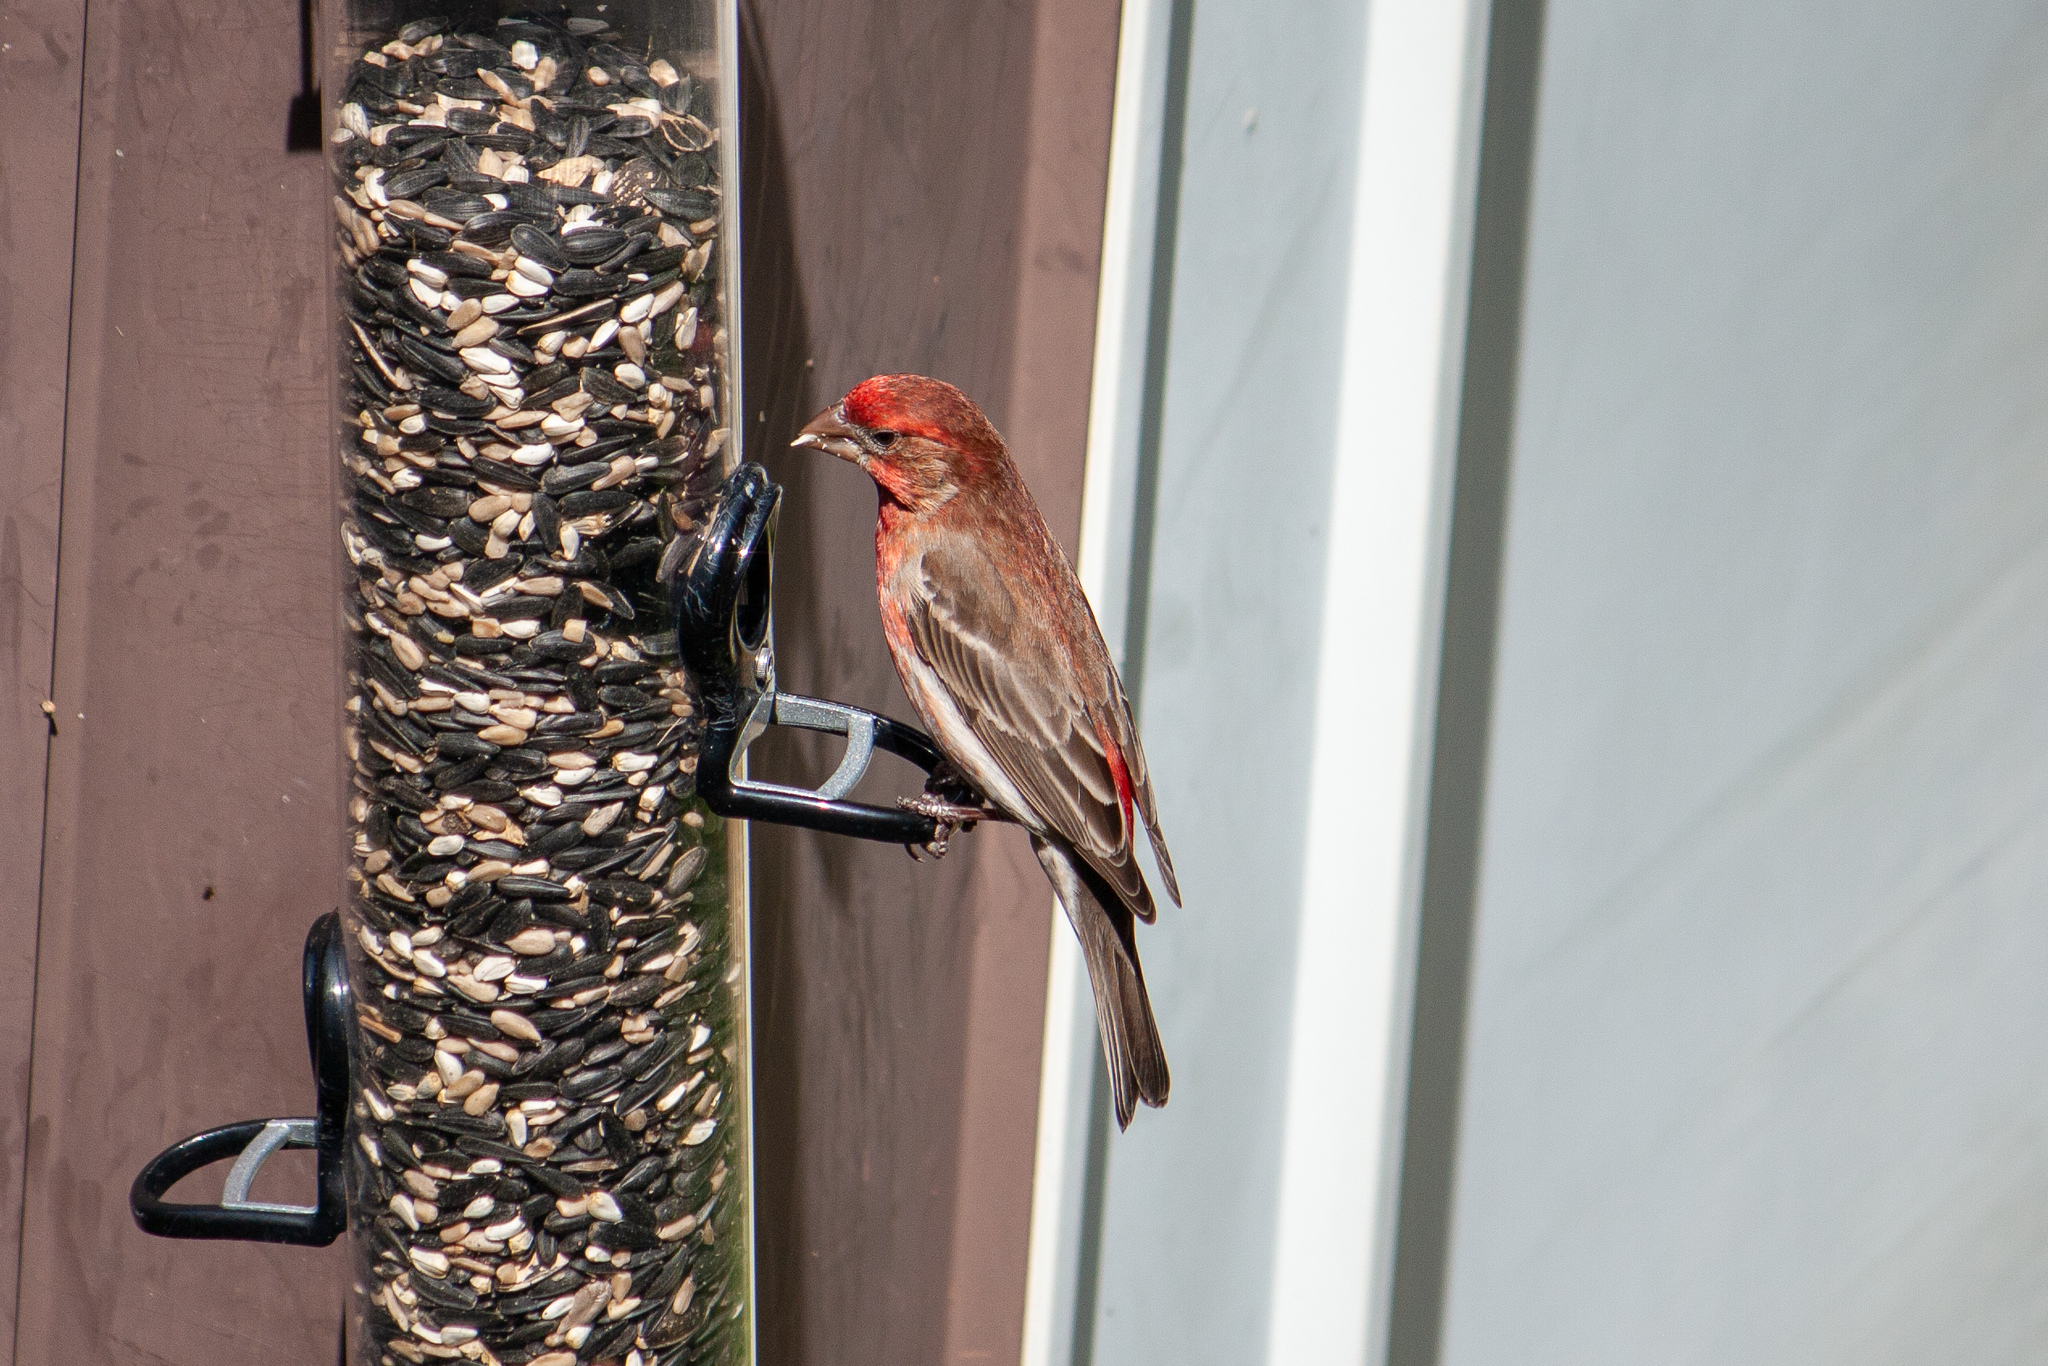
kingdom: Animalia
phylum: Chordata
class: Aves
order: Passeriformes
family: Fringillidae
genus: Haemorhous
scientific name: Haemorhous mexicanus
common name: House finch
